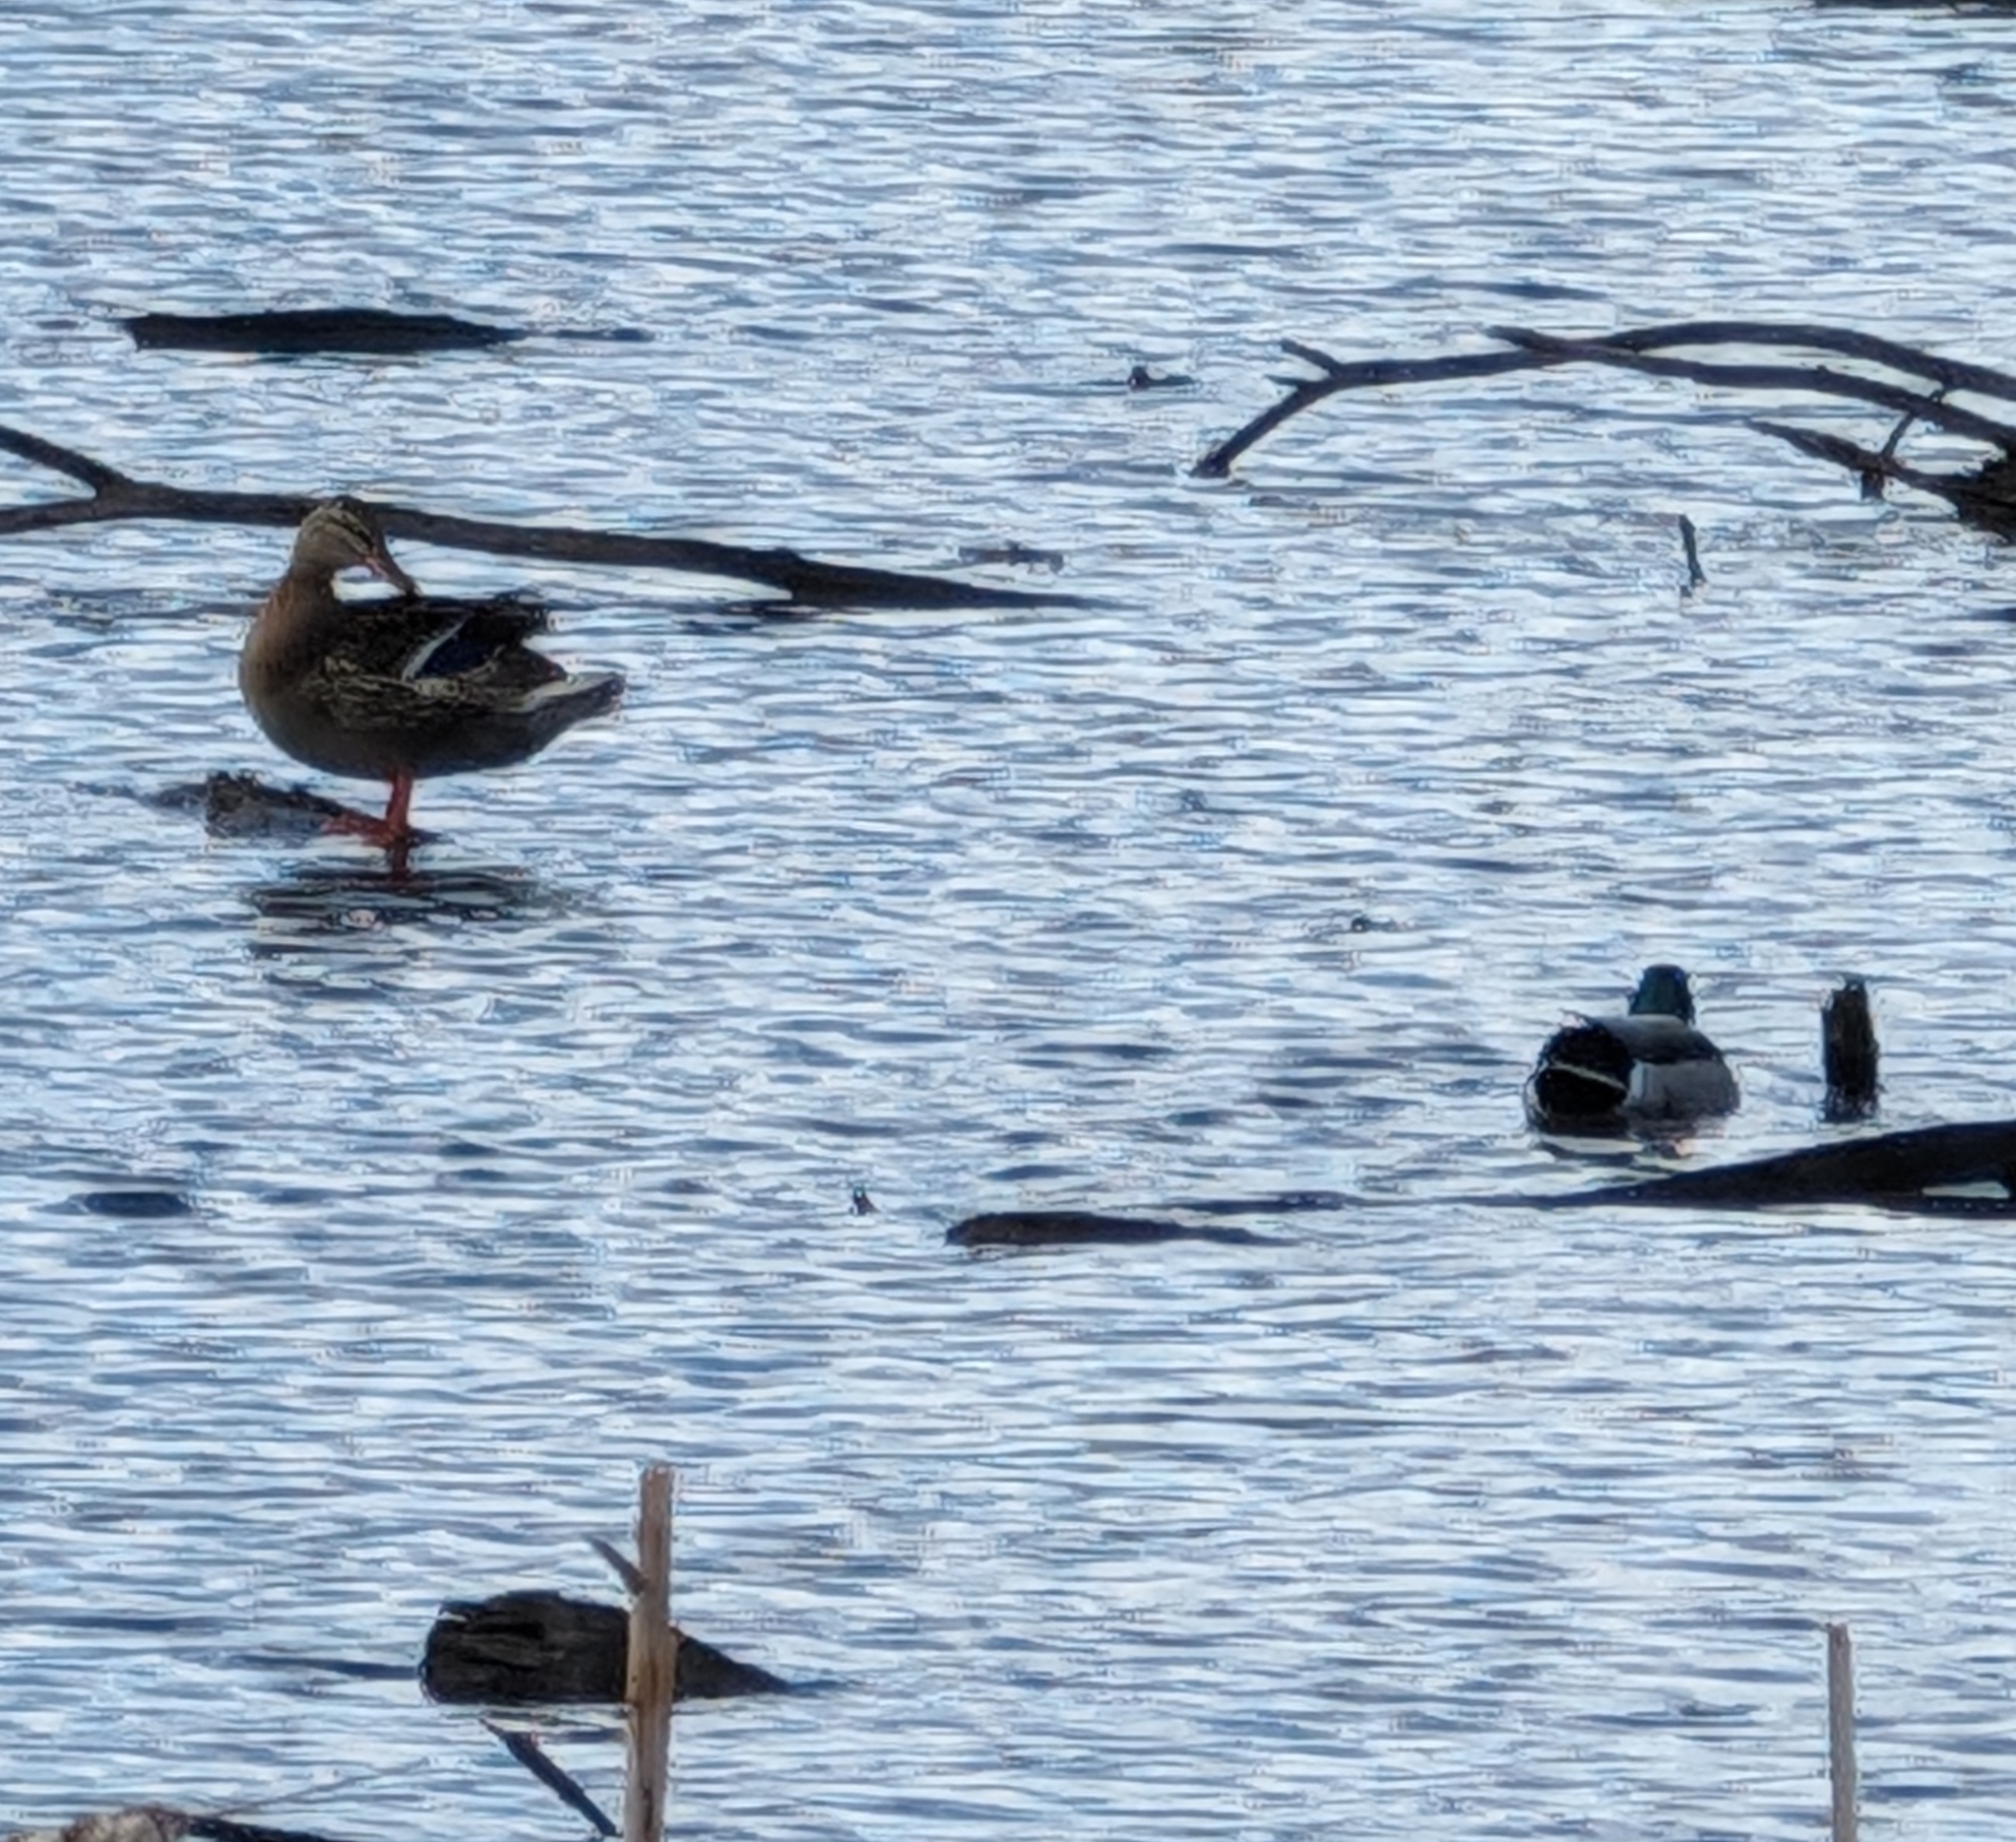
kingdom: Animalia
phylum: Chordata
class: Aves
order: Anseriformes
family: Anatidae
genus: Anas
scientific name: Anas platyrhynchos
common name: Mallard
